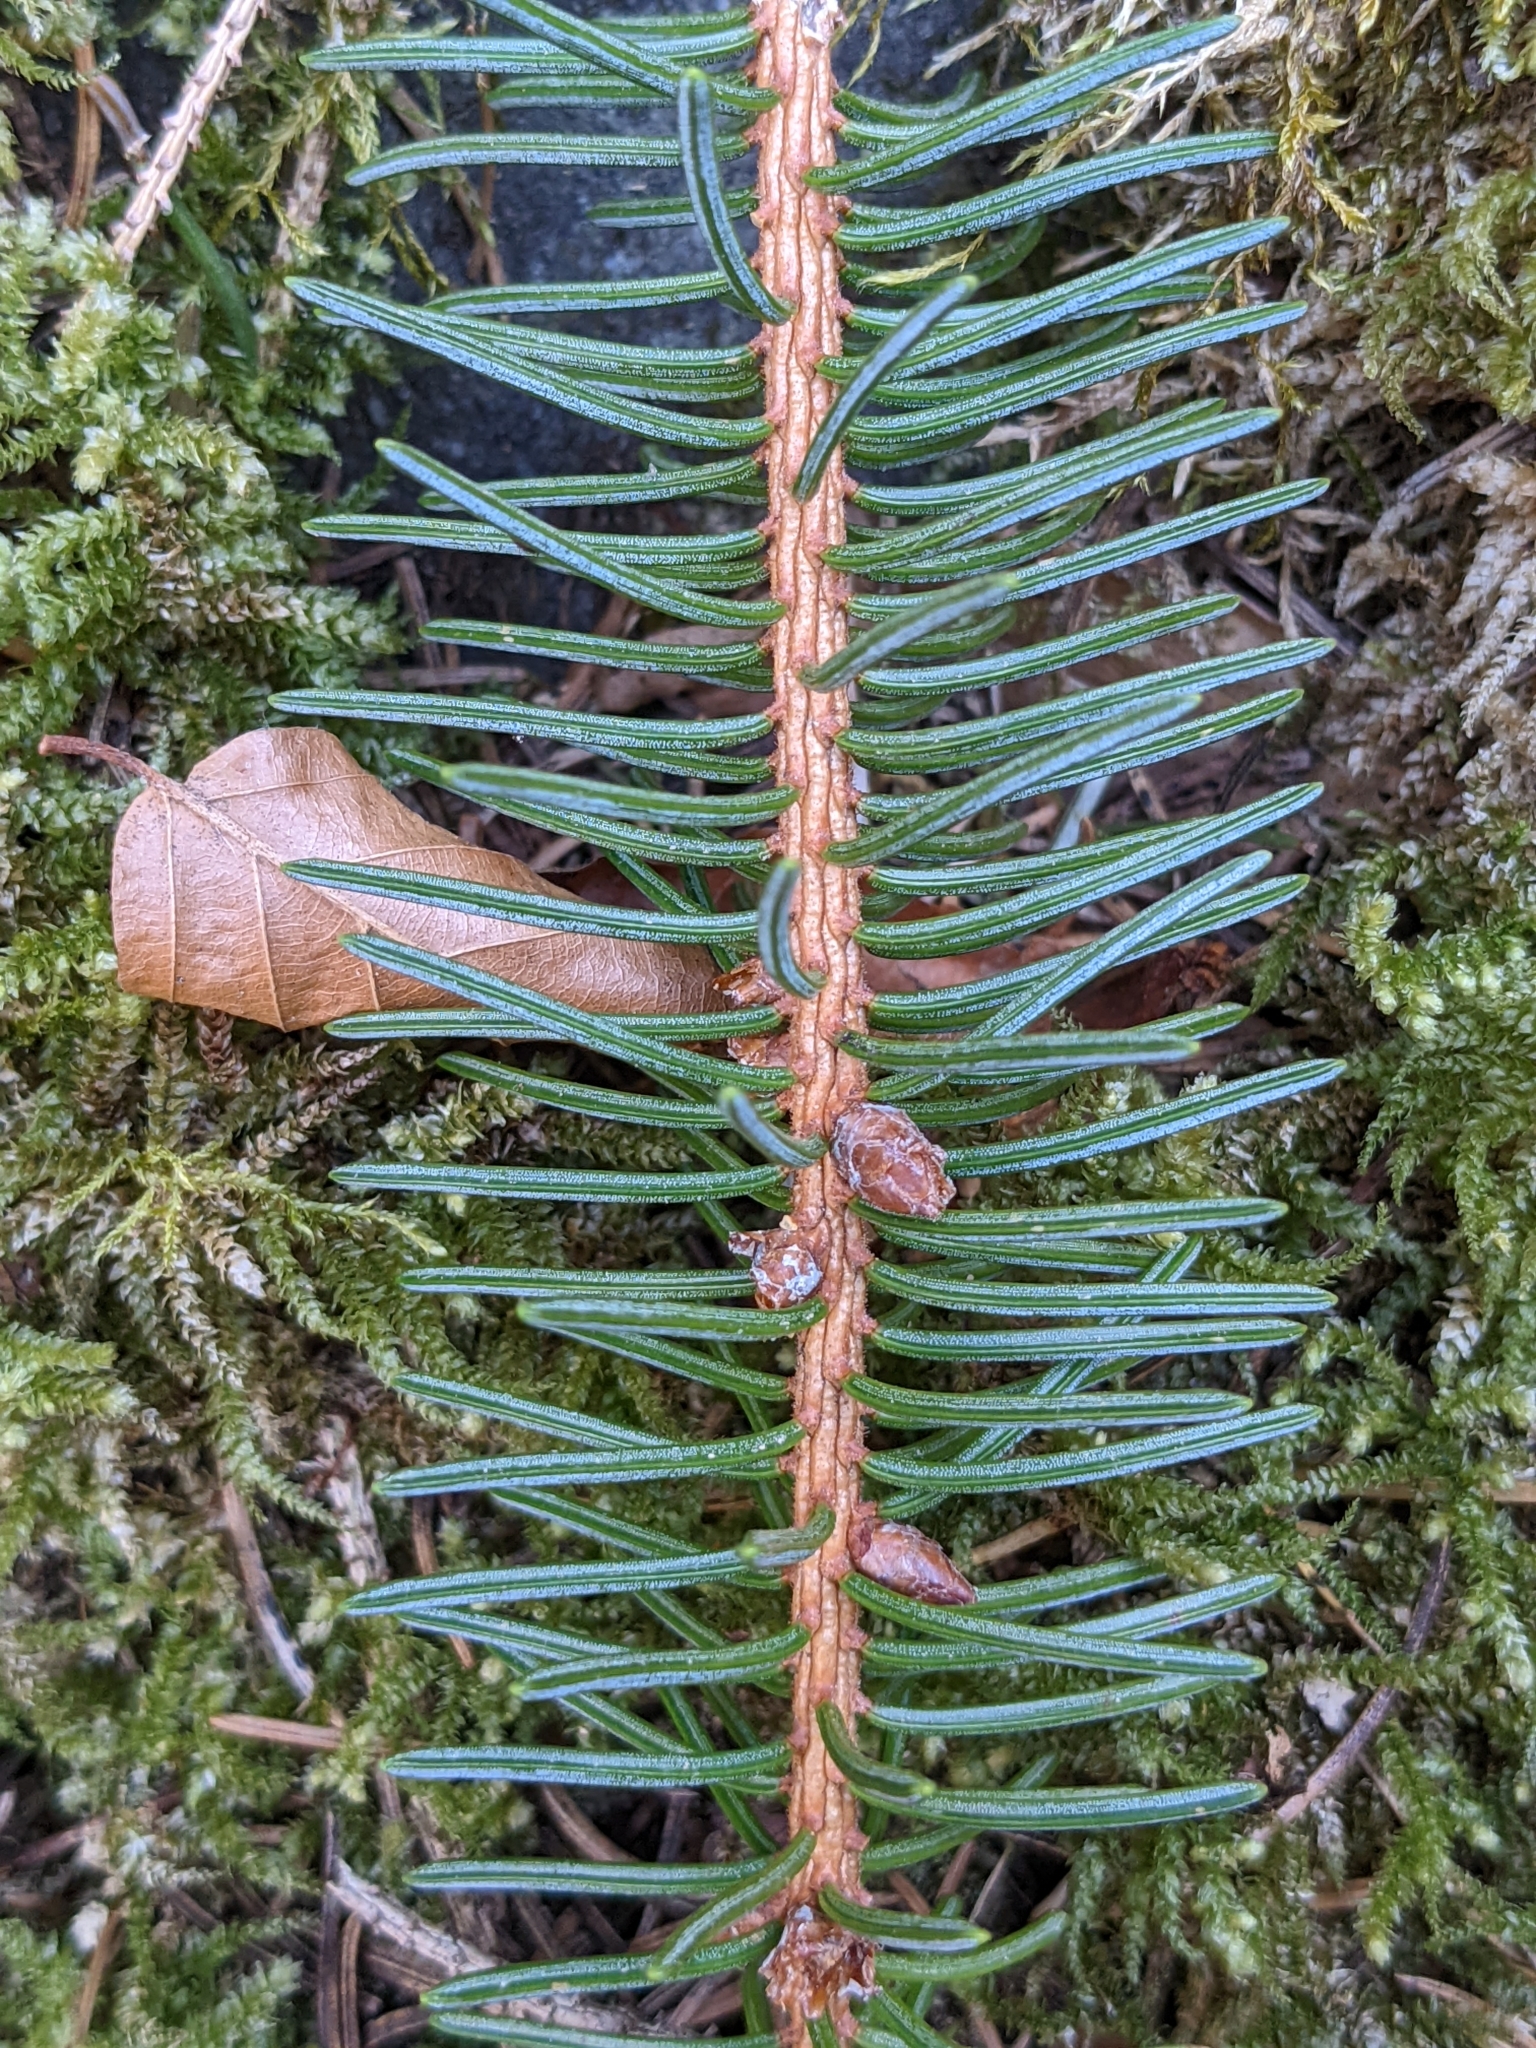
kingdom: Plantae
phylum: Tracheophyta
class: Pinopsida
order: Pinales
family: Pinaceae
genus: Picea
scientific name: Picea abies
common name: Norway spruce
